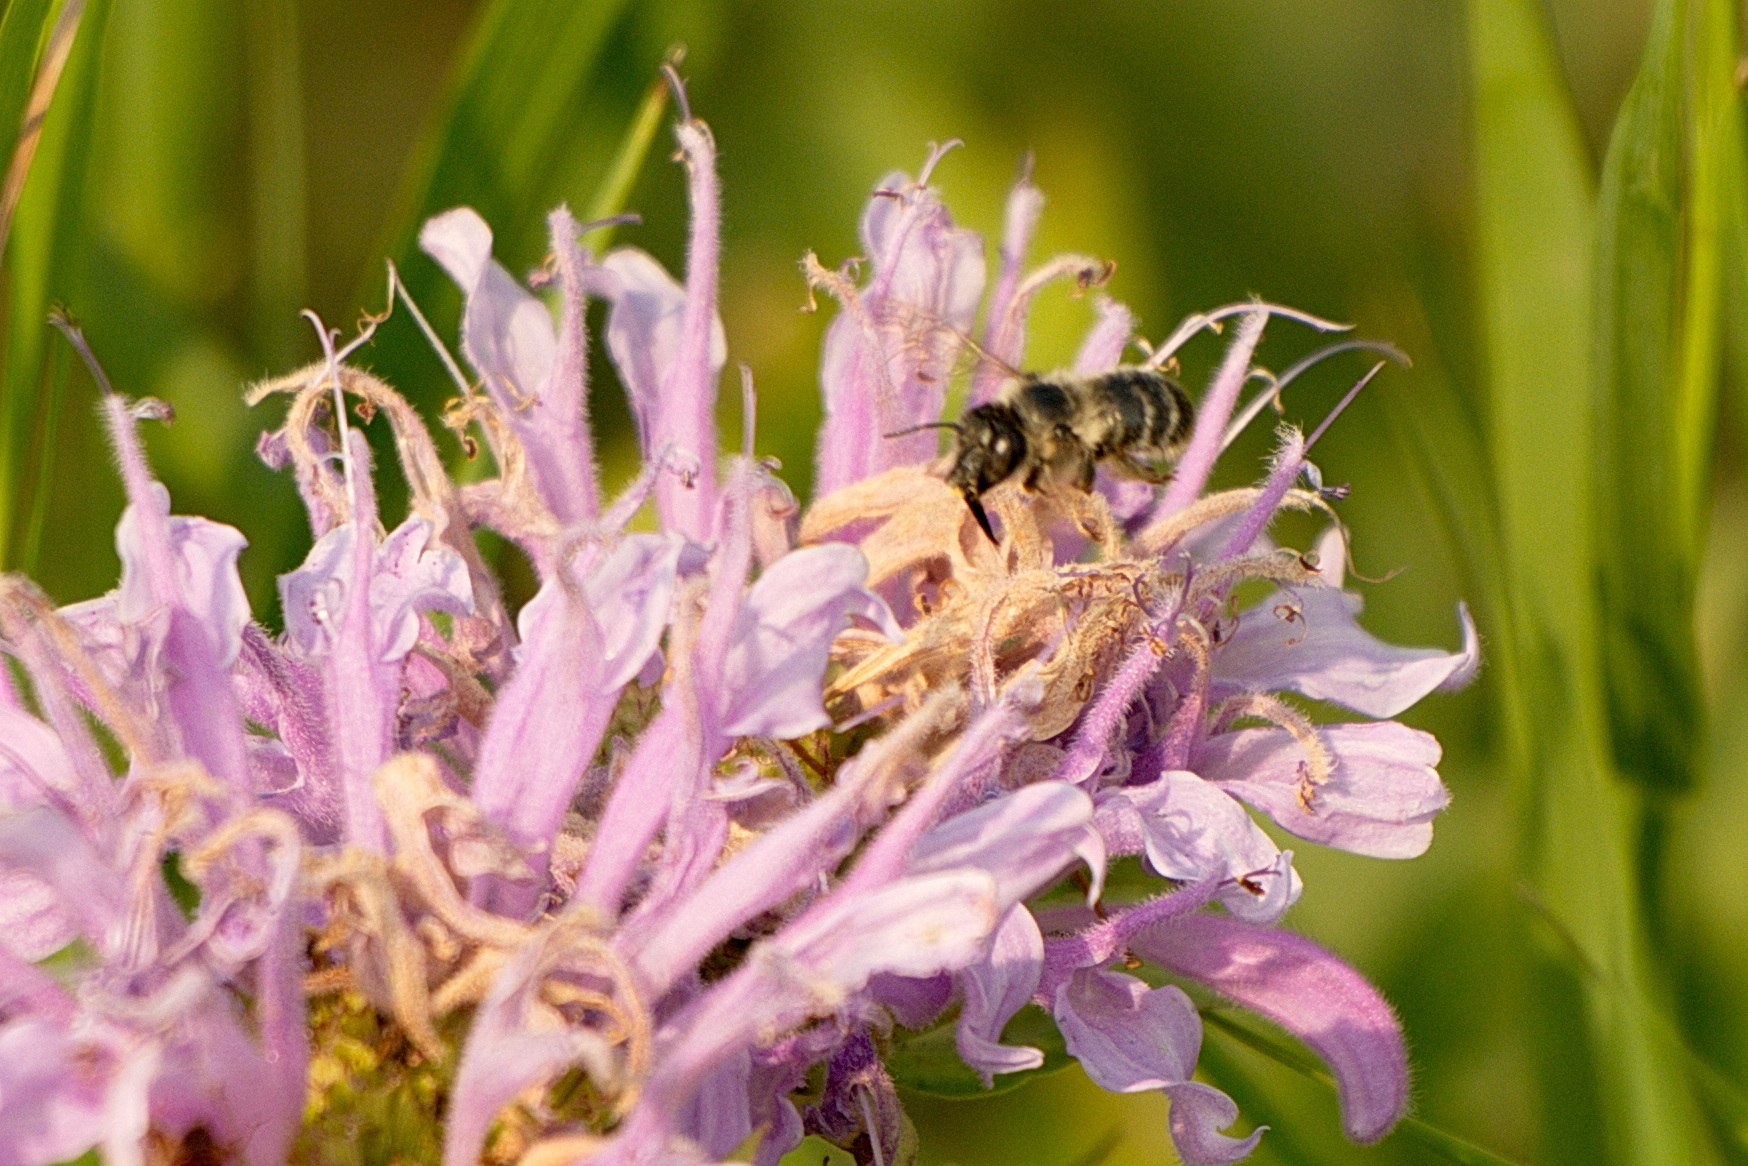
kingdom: Animalia
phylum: Arthropoda
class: Insecta
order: Hymenoptera
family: Apidae
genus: Anthophora
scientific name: Anthophora terminalis
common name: Orange-tipped wood-digger bee
